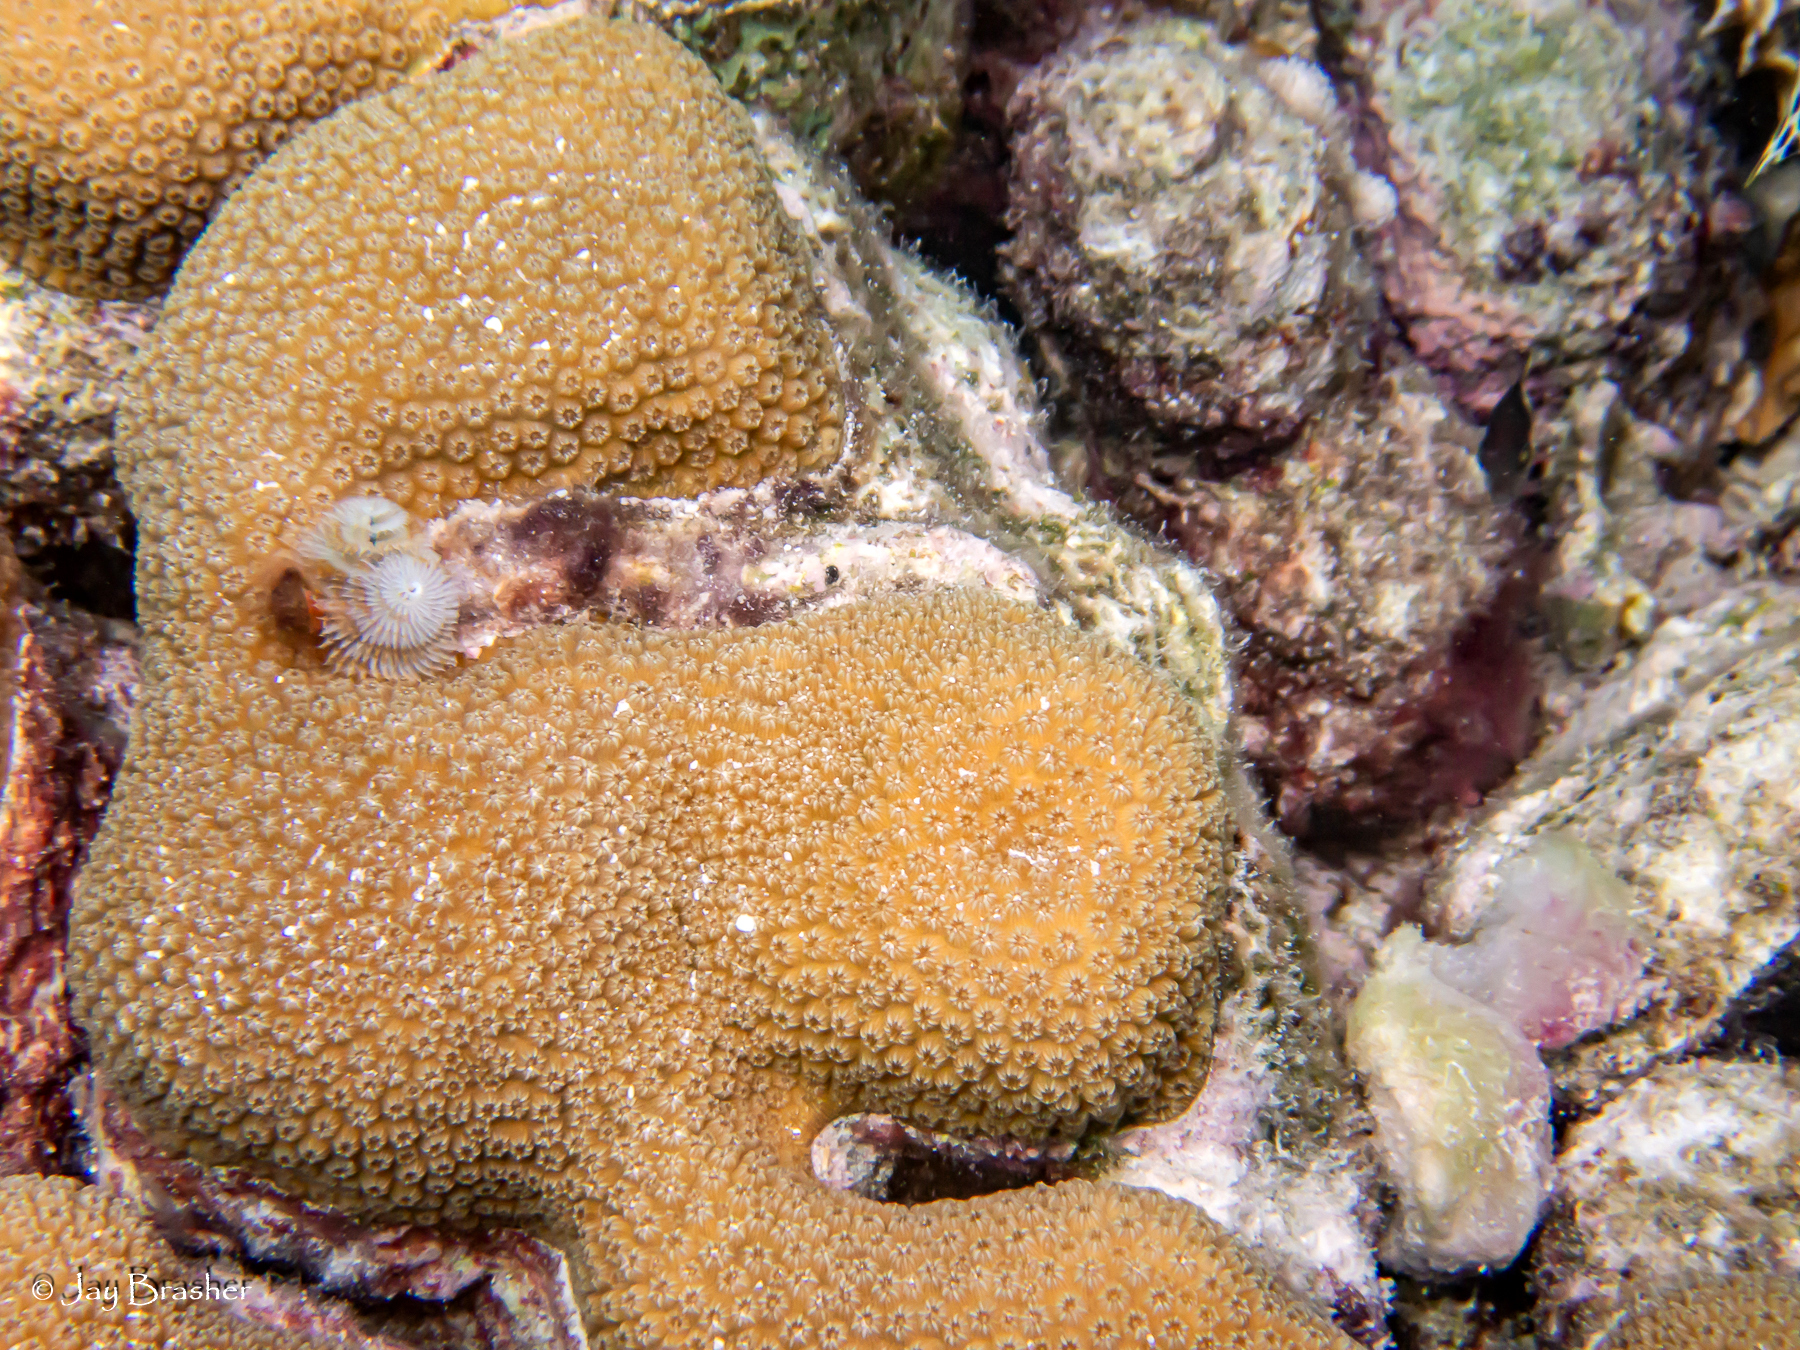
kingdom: Animalia
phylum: Cnidaria
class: Anthozoa
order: Scleractinia
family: Merulinidae
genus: Orbicella
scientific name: Orbicella annularis
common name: Boulder star coral
